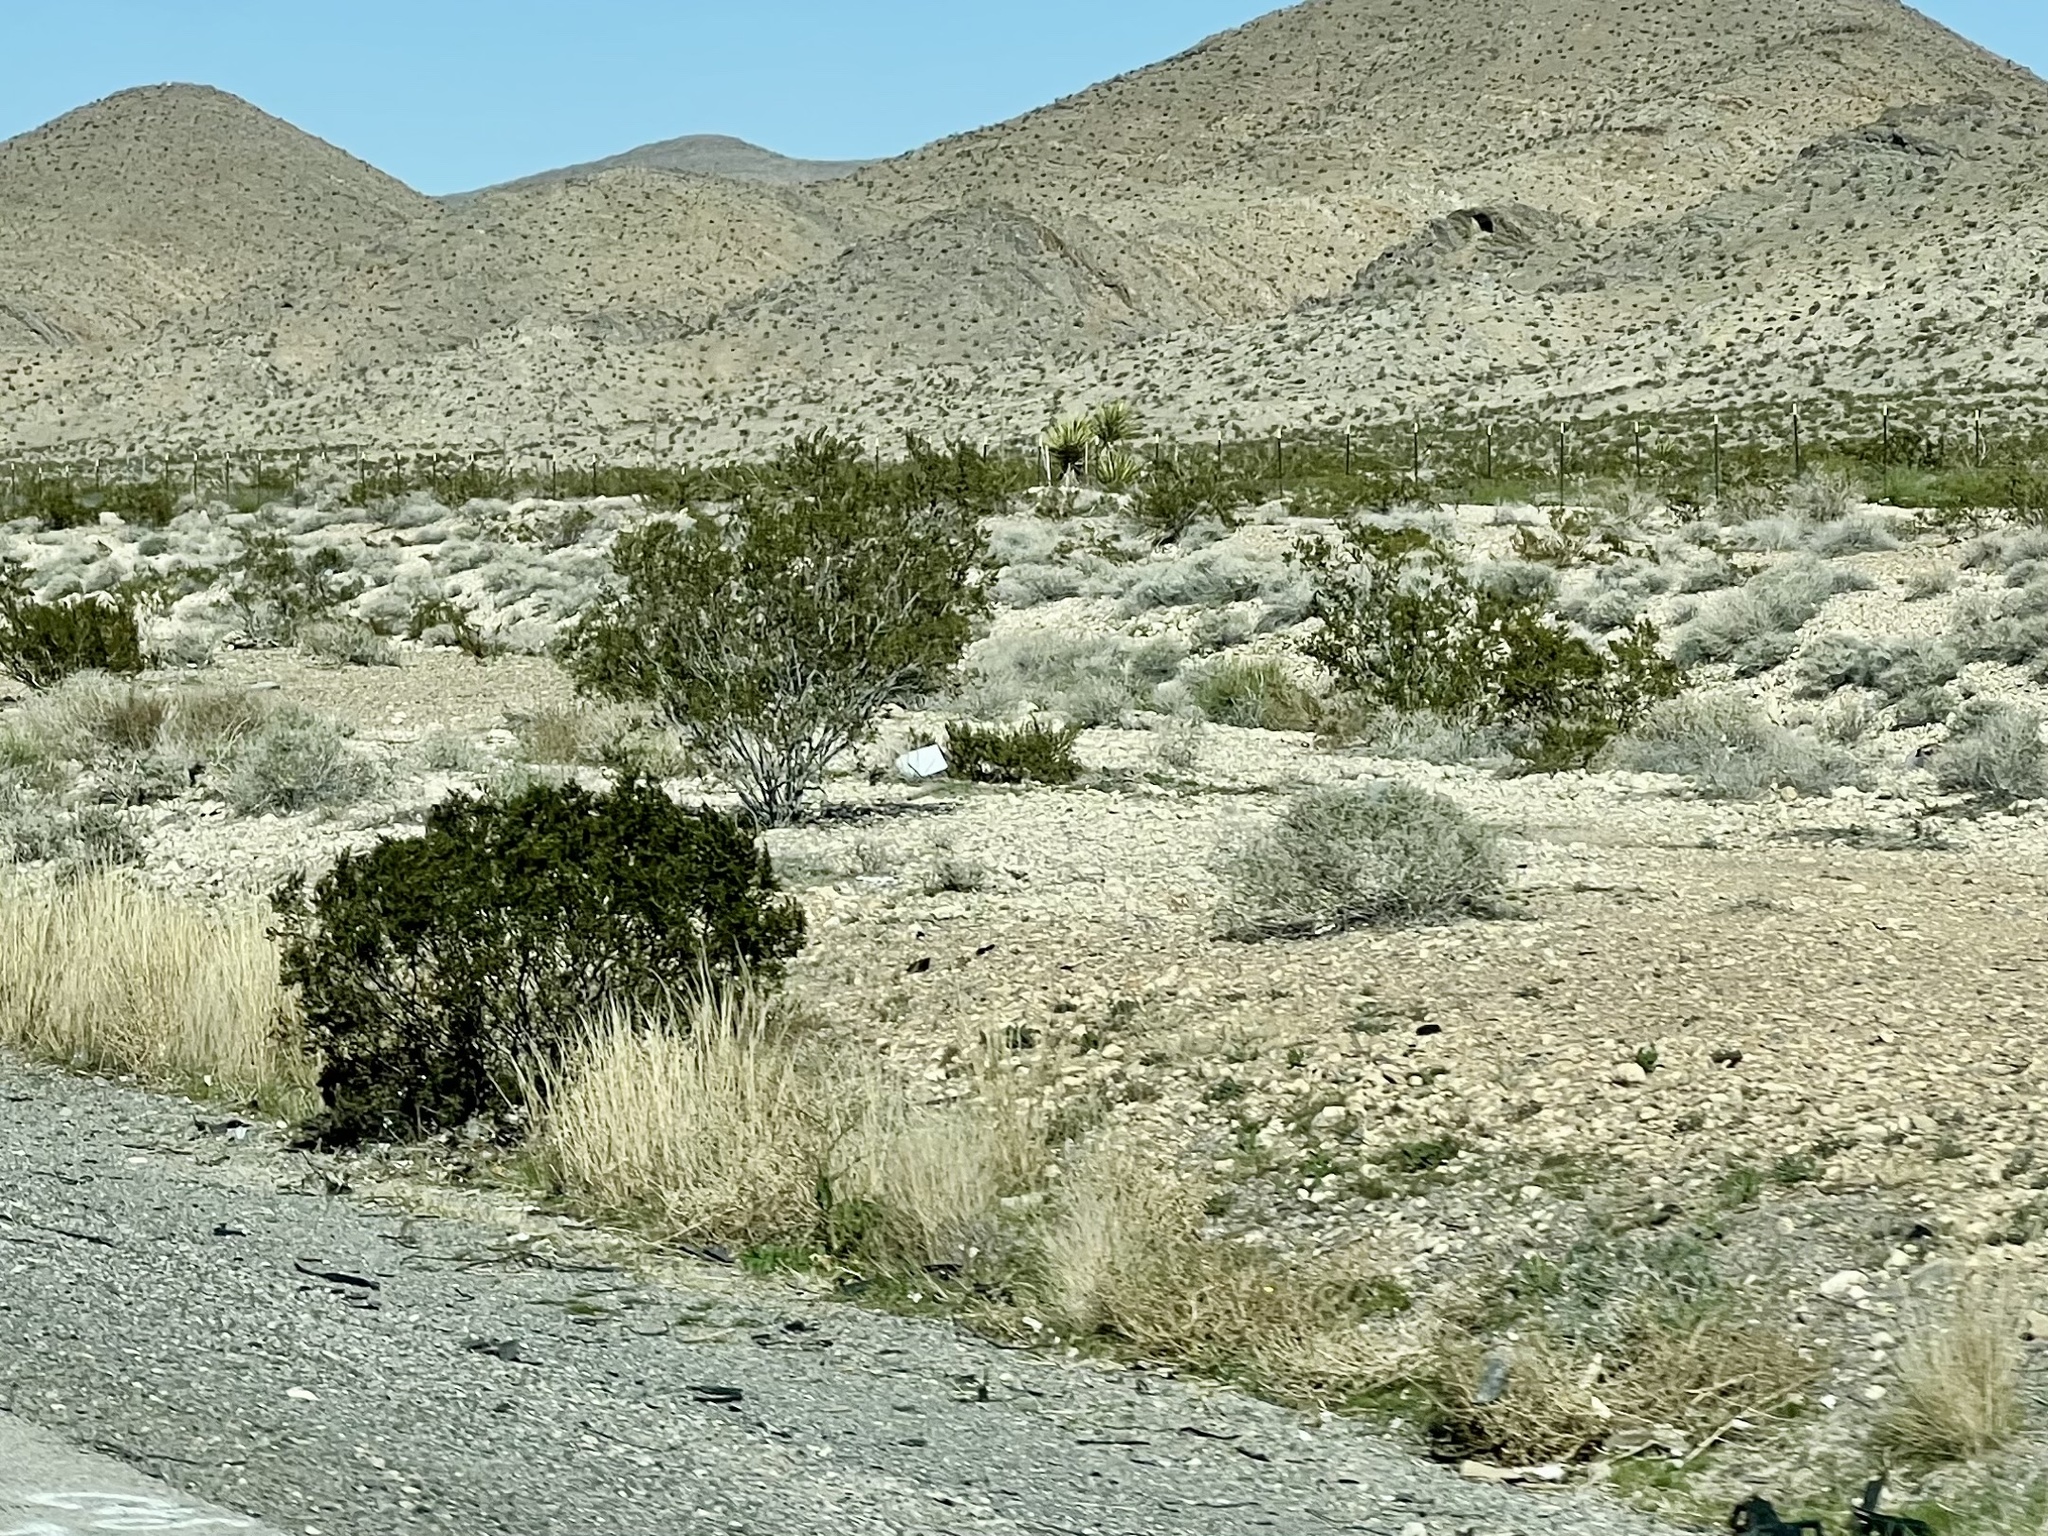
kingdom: Plantae
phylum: Tracheophyta
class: Magnoliopsida
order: Zygophyllales
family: Zygophyllaceae
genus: Larrea
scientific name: Larrea tridentata
